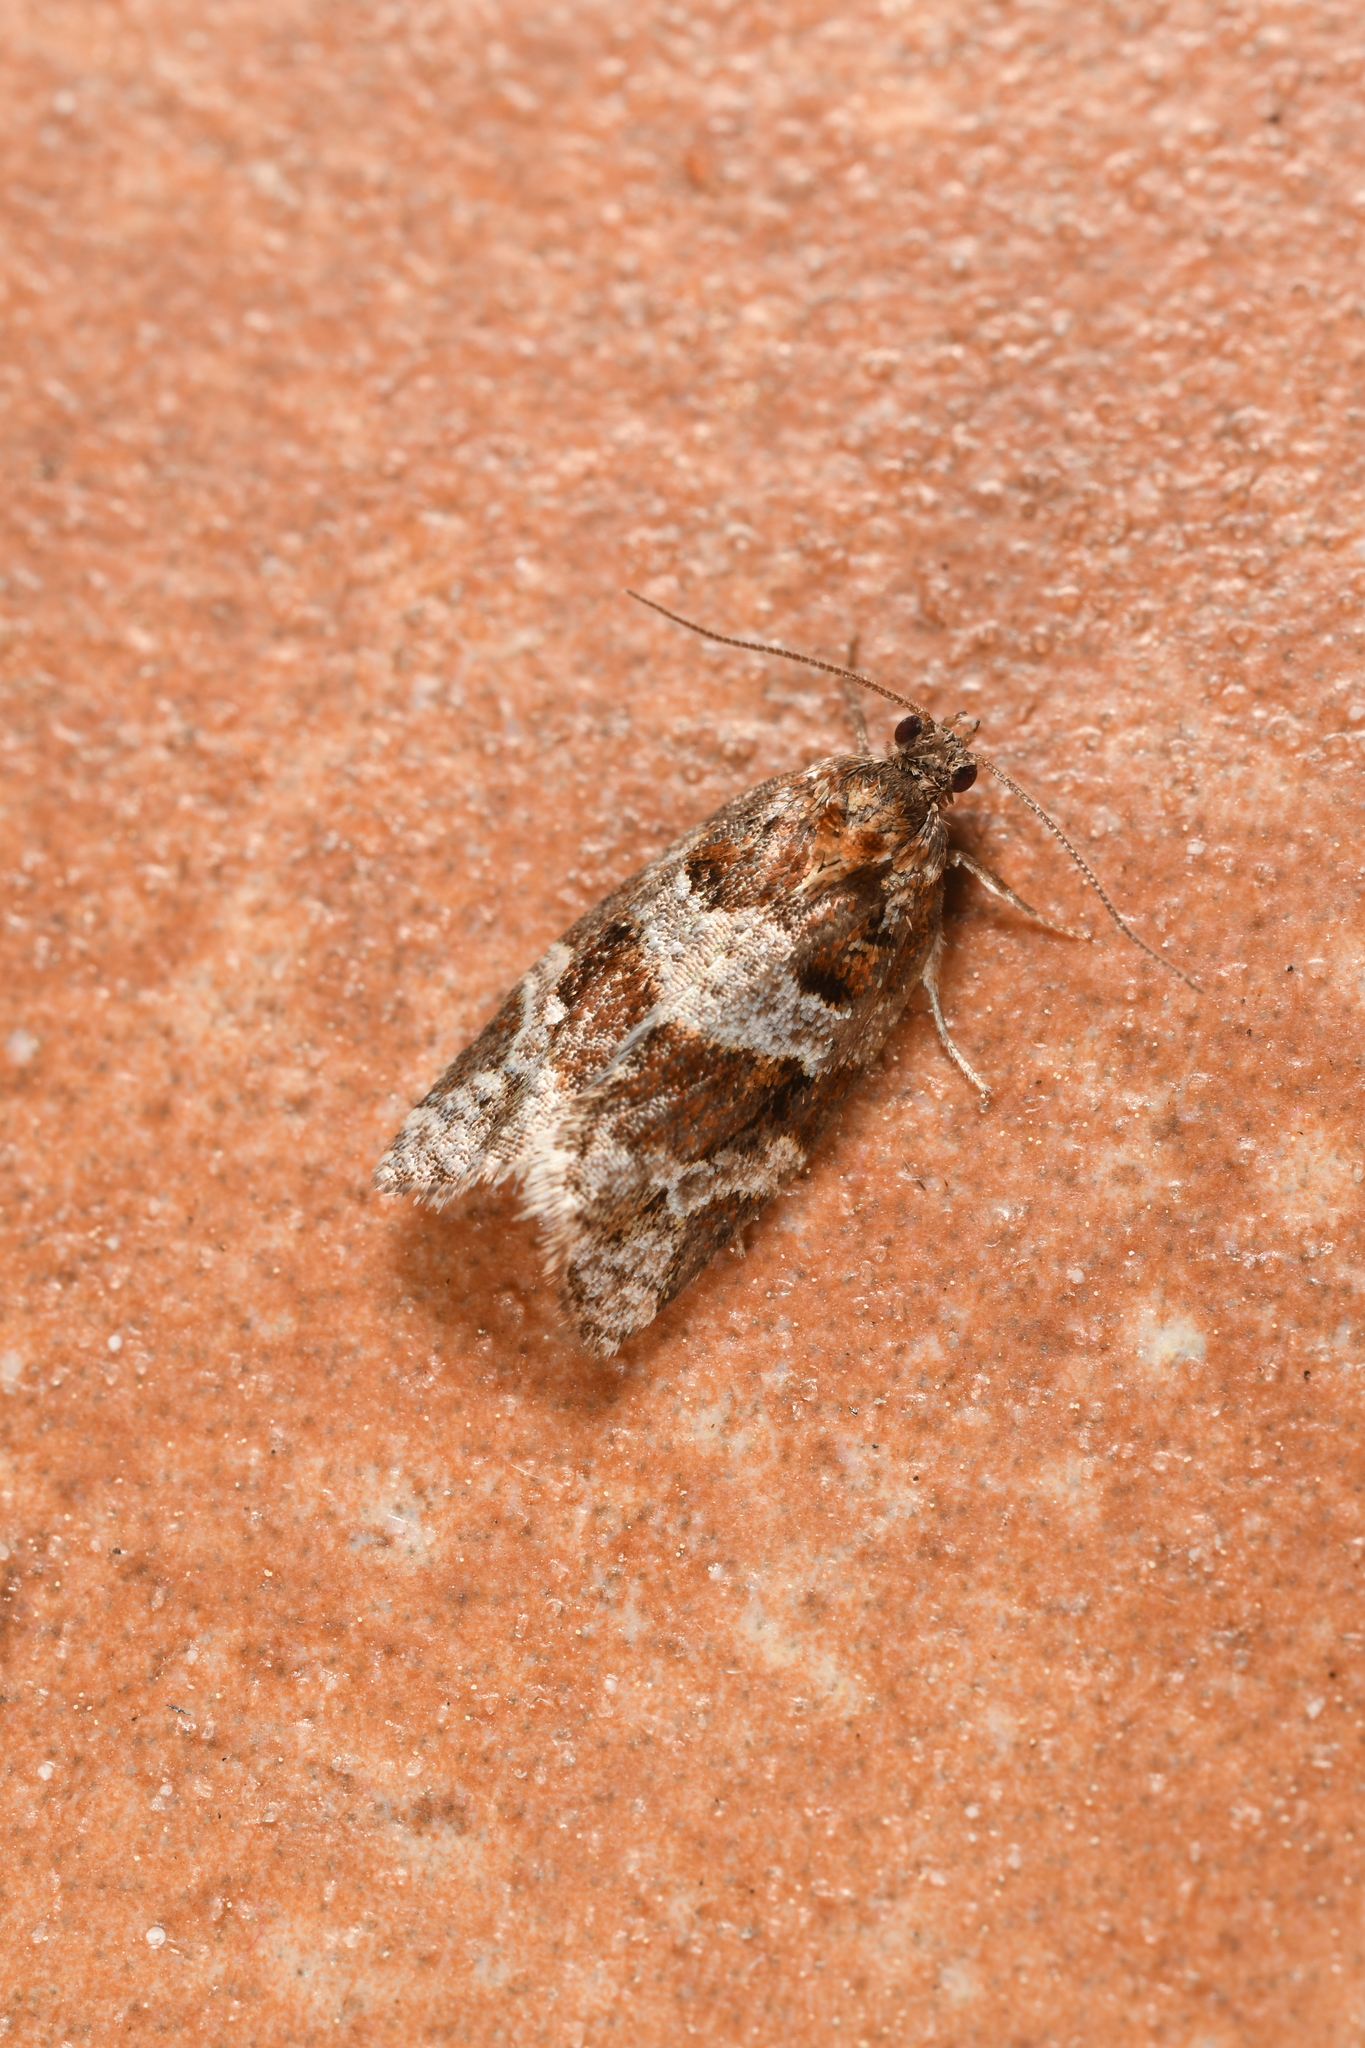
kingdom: Animalia
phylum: Arthropoda
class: Insecta
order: Lepidoptera
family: Tortricidae
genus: Argyrotaenia
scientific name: Argyrotaenia ljungiana
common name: Heather twist
